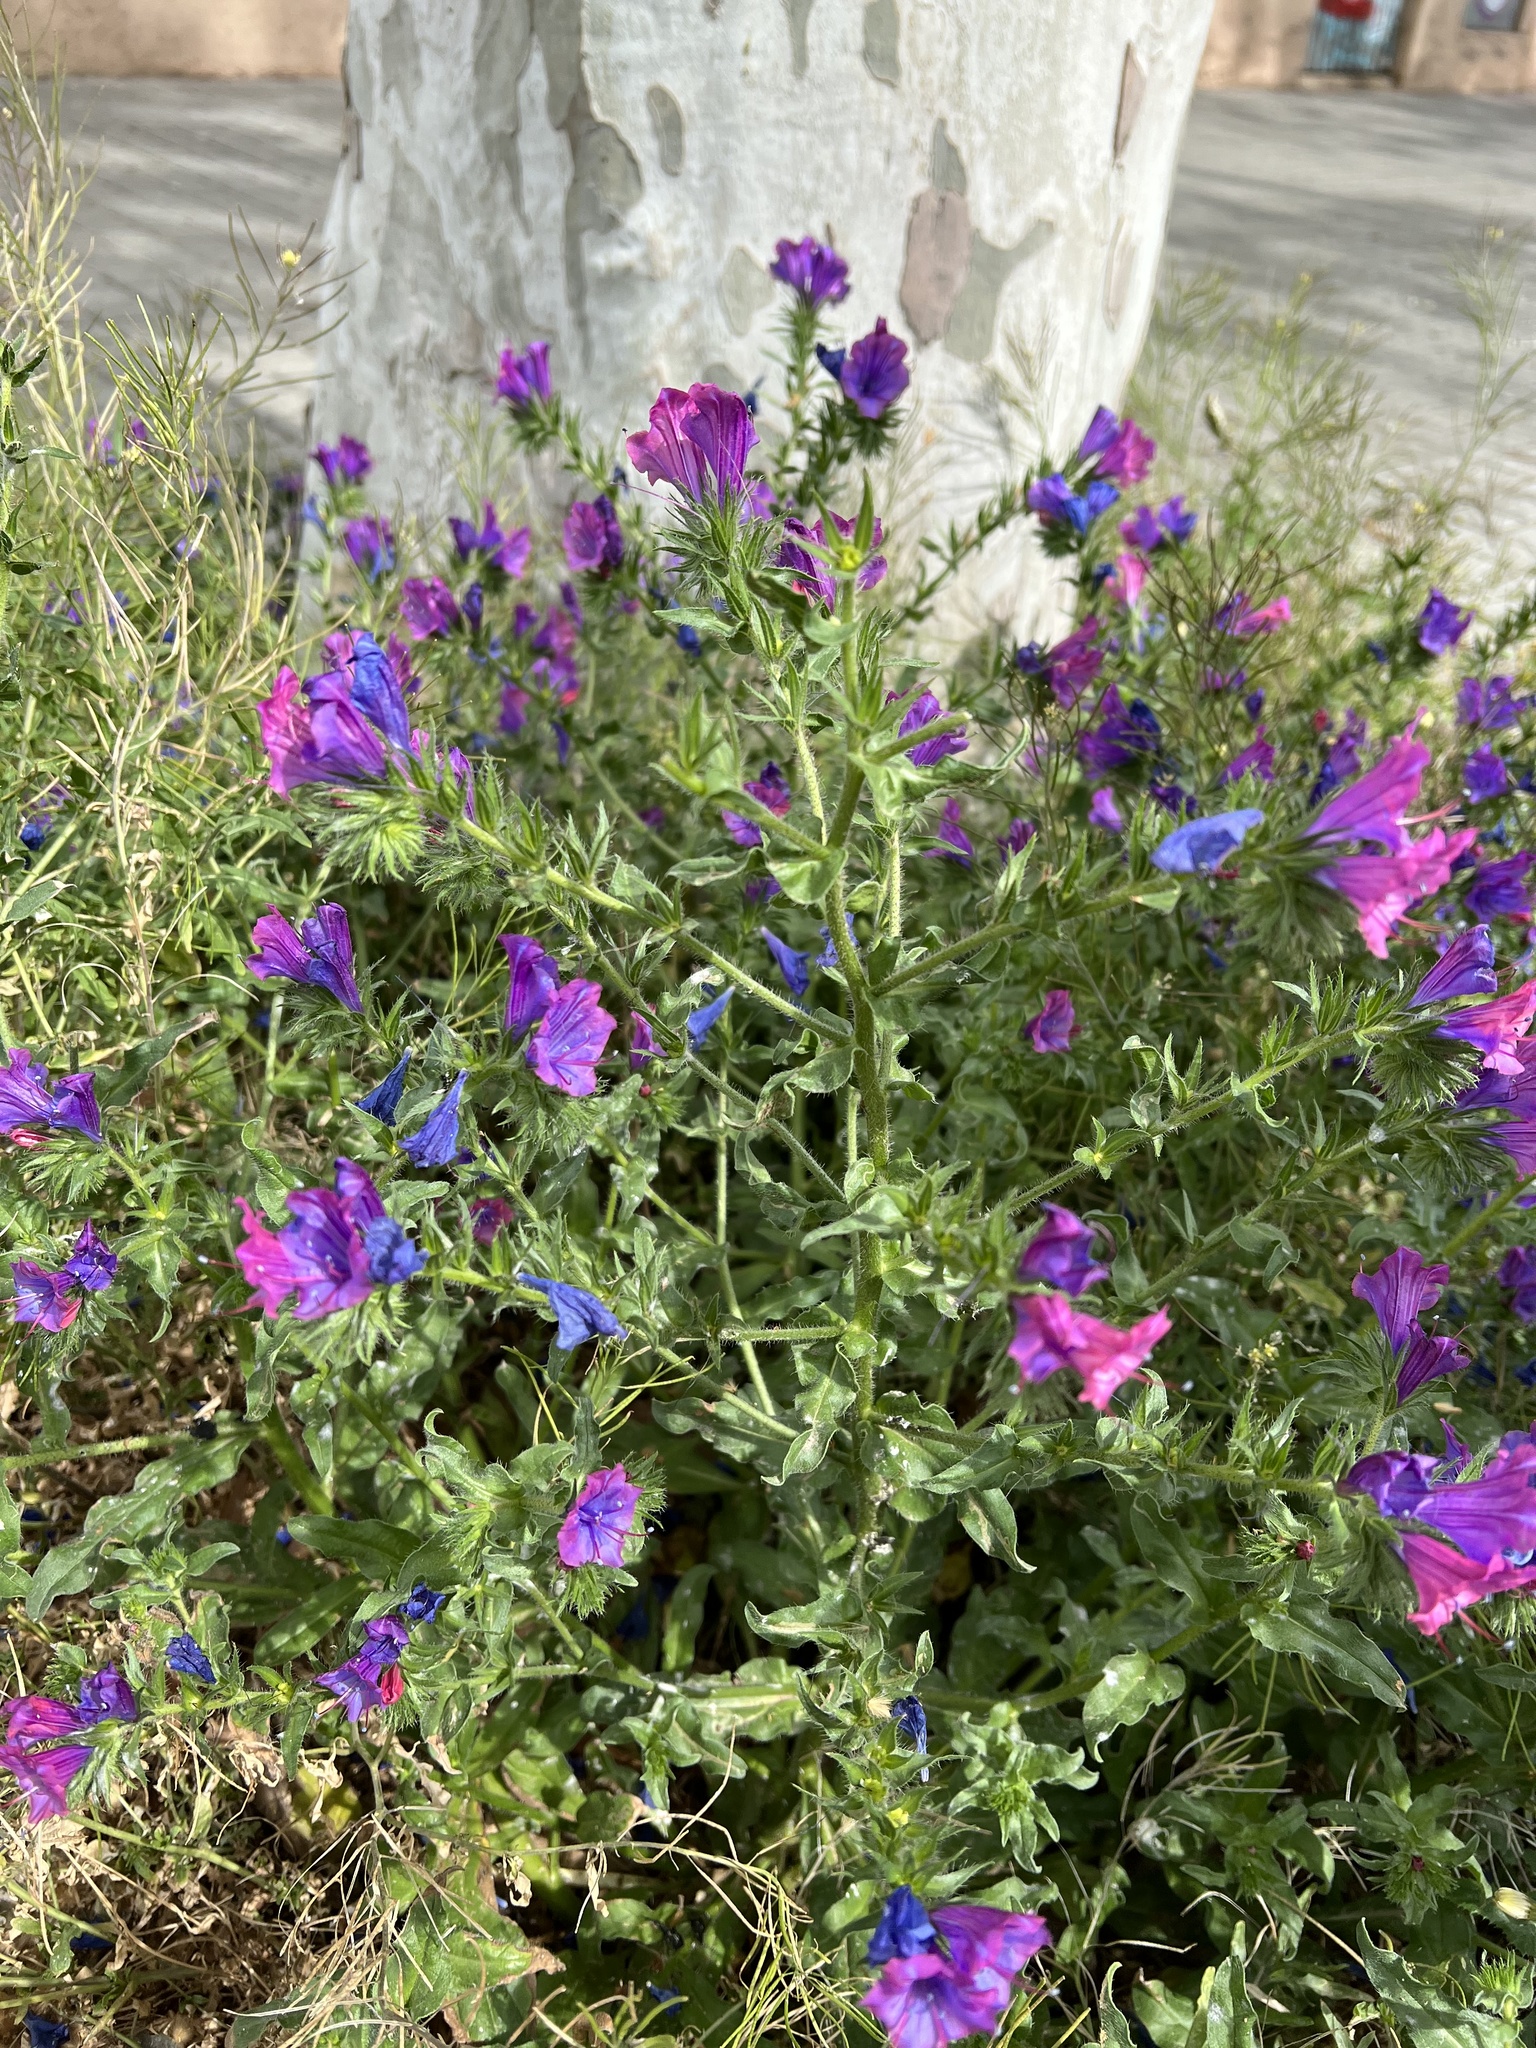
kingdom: Plantae
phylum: Tracheophyta
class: Magnoliopsida
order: Boraginales
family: Boraginaceae
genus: Echium
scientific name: Echium plantagineum
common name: Purple viper's-bugloss
